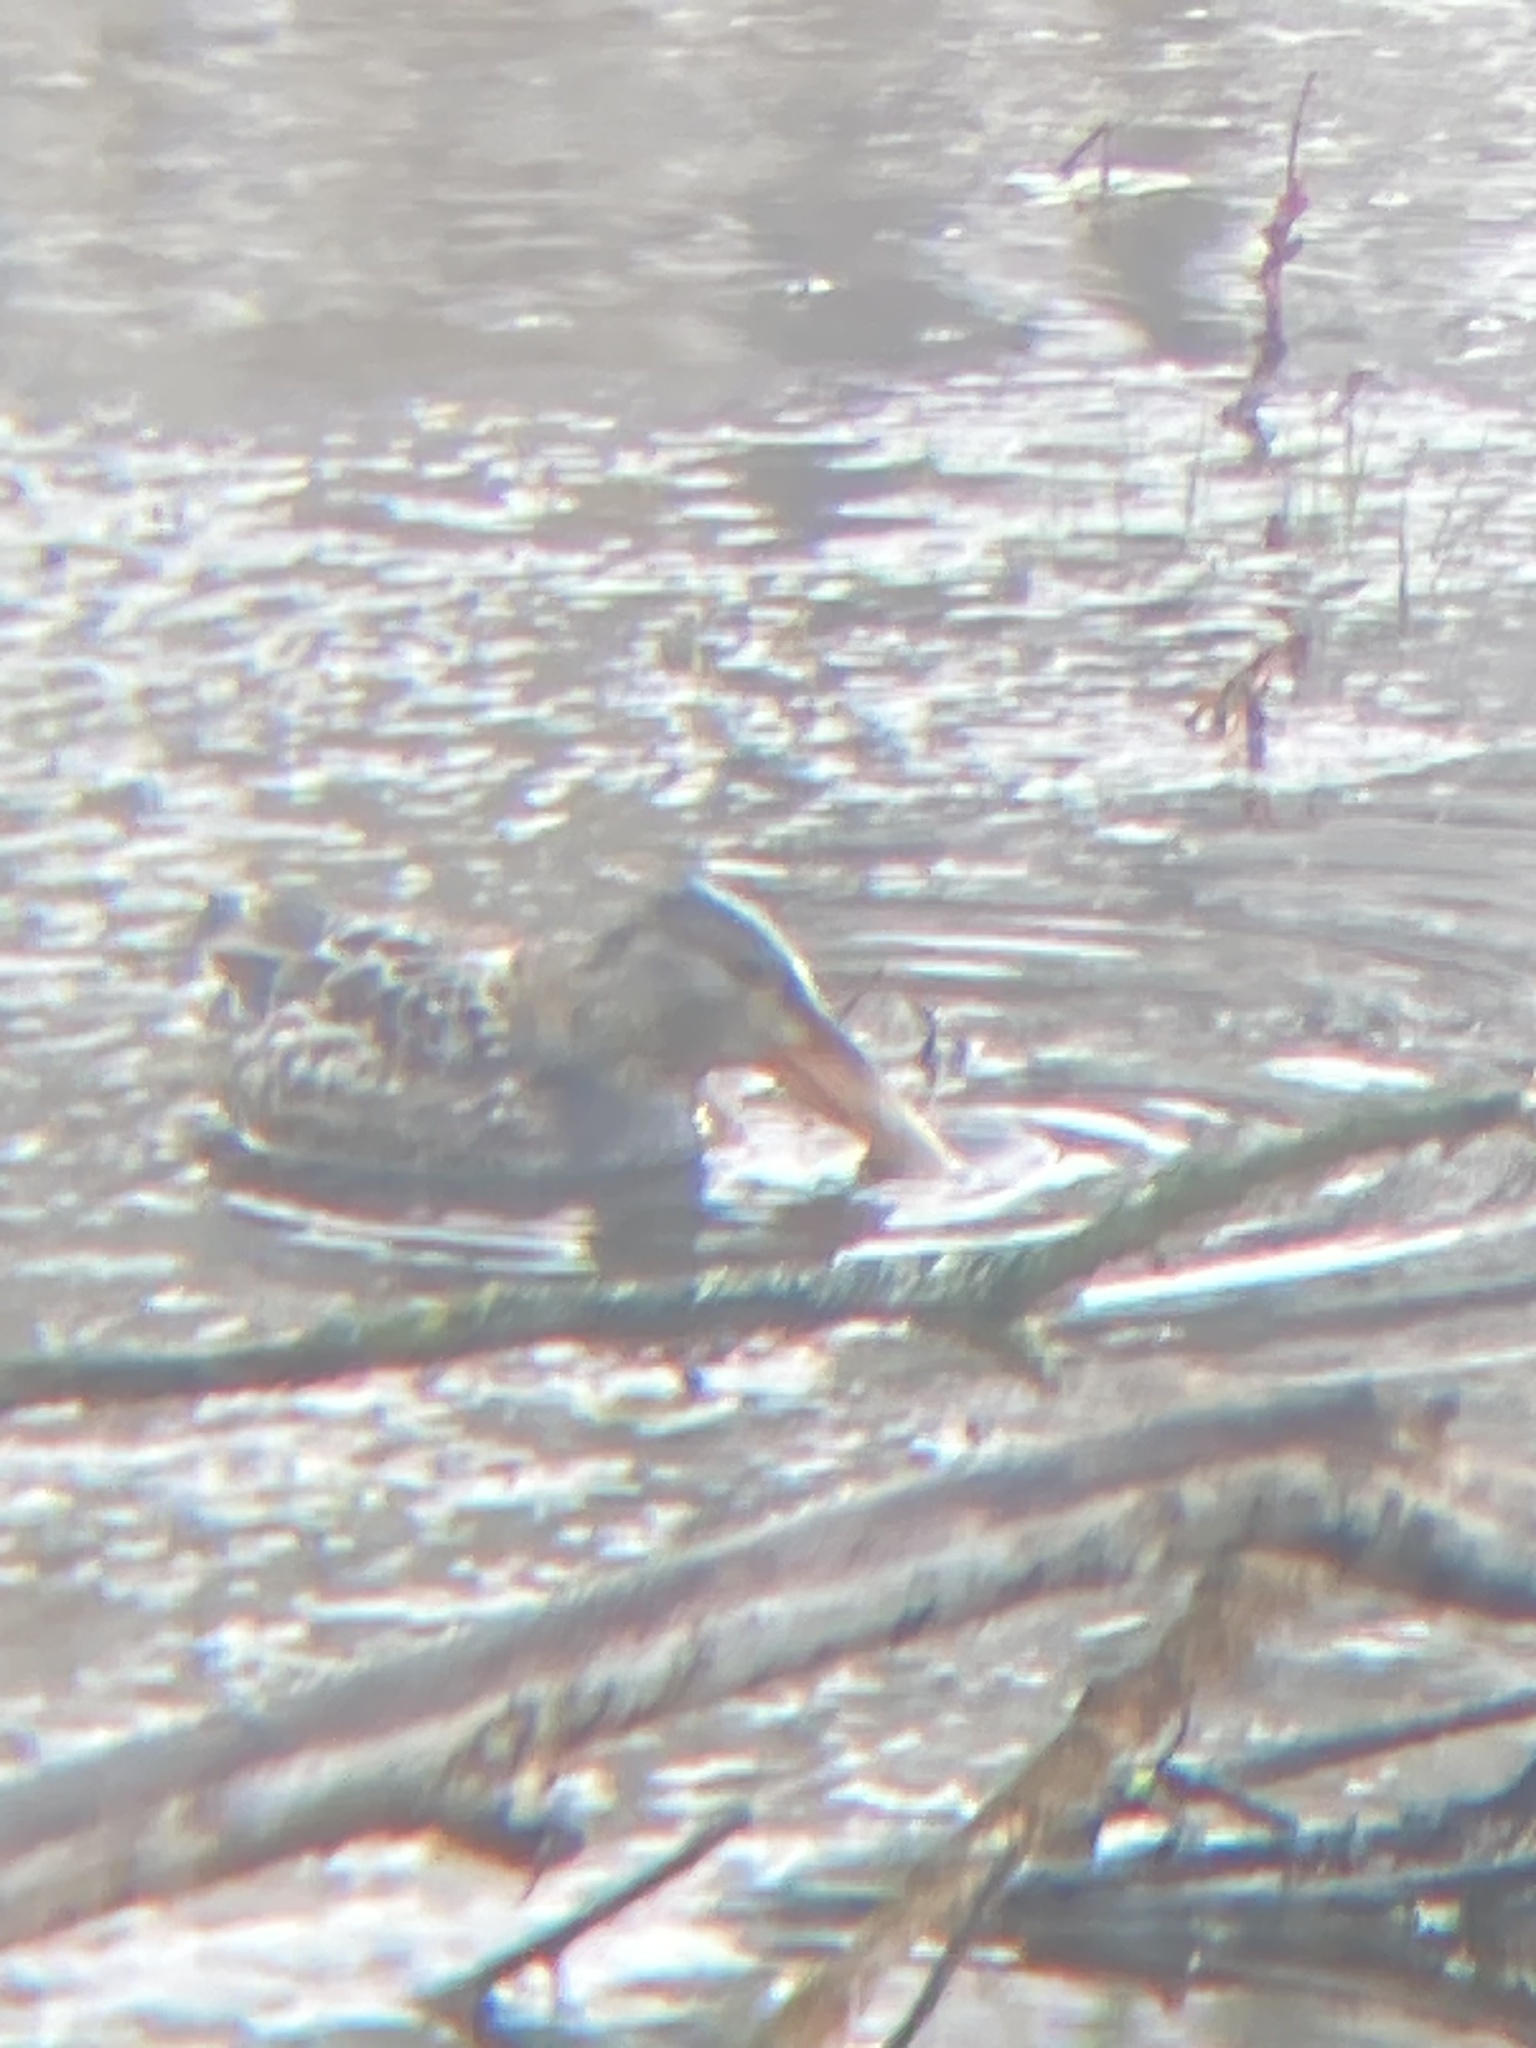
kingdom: Animalia
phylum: Chordata
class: Aves
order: Anseriformes
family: Anatidae
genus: Spatula
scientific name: Spatula clypeata
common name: Northern shoveler
